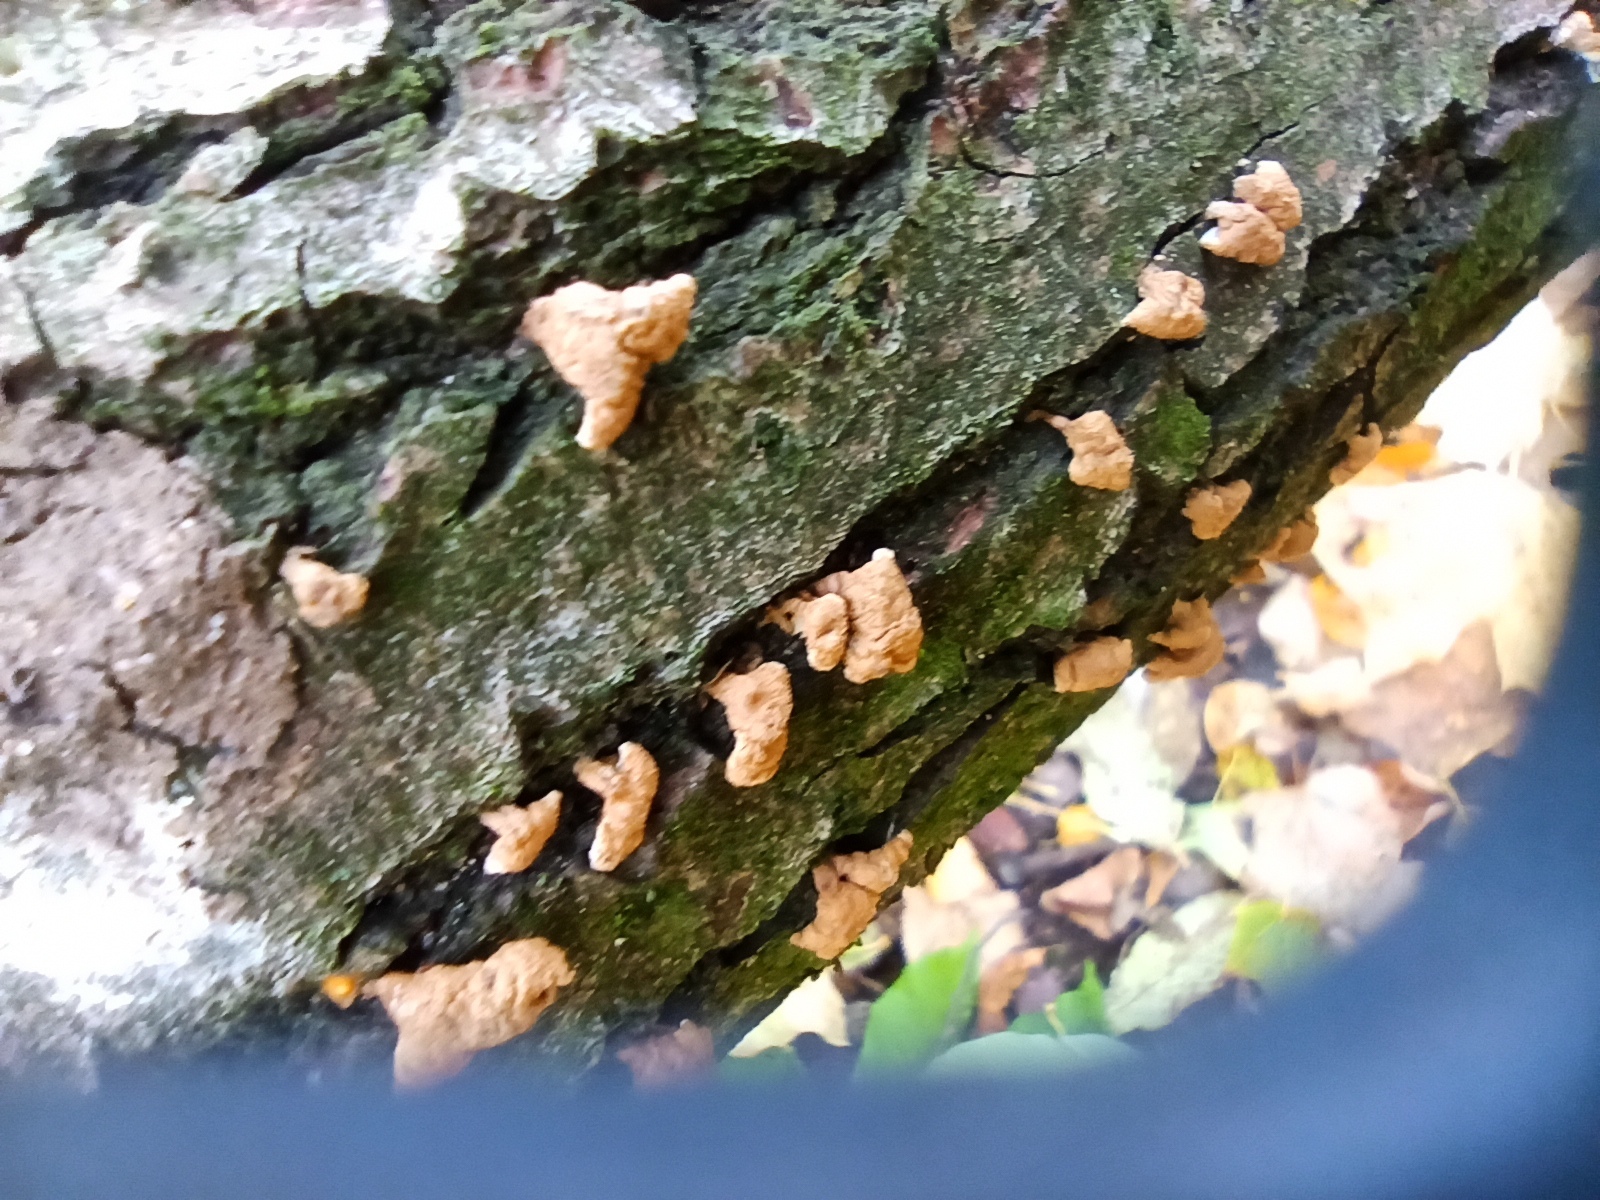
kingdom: Fungi
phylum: Basidiomycota
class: Agaricomycetes
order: Amylocorticiales
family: Amylocorticiaceae
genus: Plicaturopsis
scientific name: Plicaturopsis crispa
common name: Crimped gill
